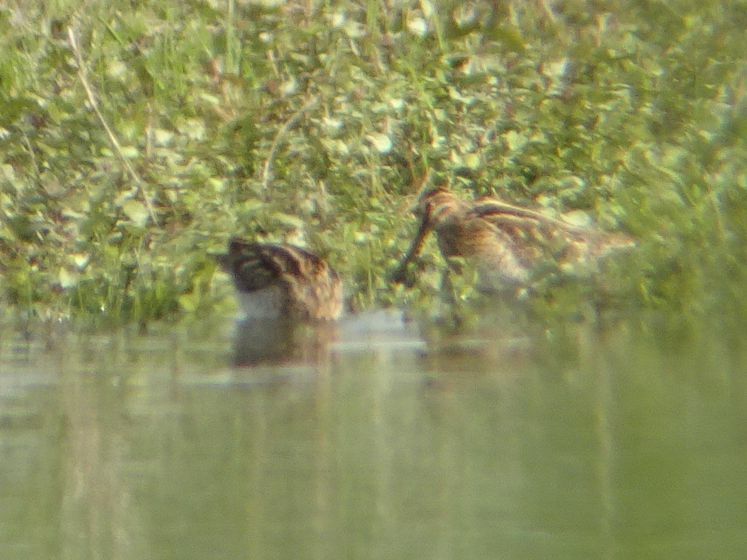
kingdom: Animalia
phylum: Chordata
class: Aves
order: Charadriiformes
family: Scolopacidae
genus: Gallinago
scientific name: Gallinago gallinago
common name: Common snipe
